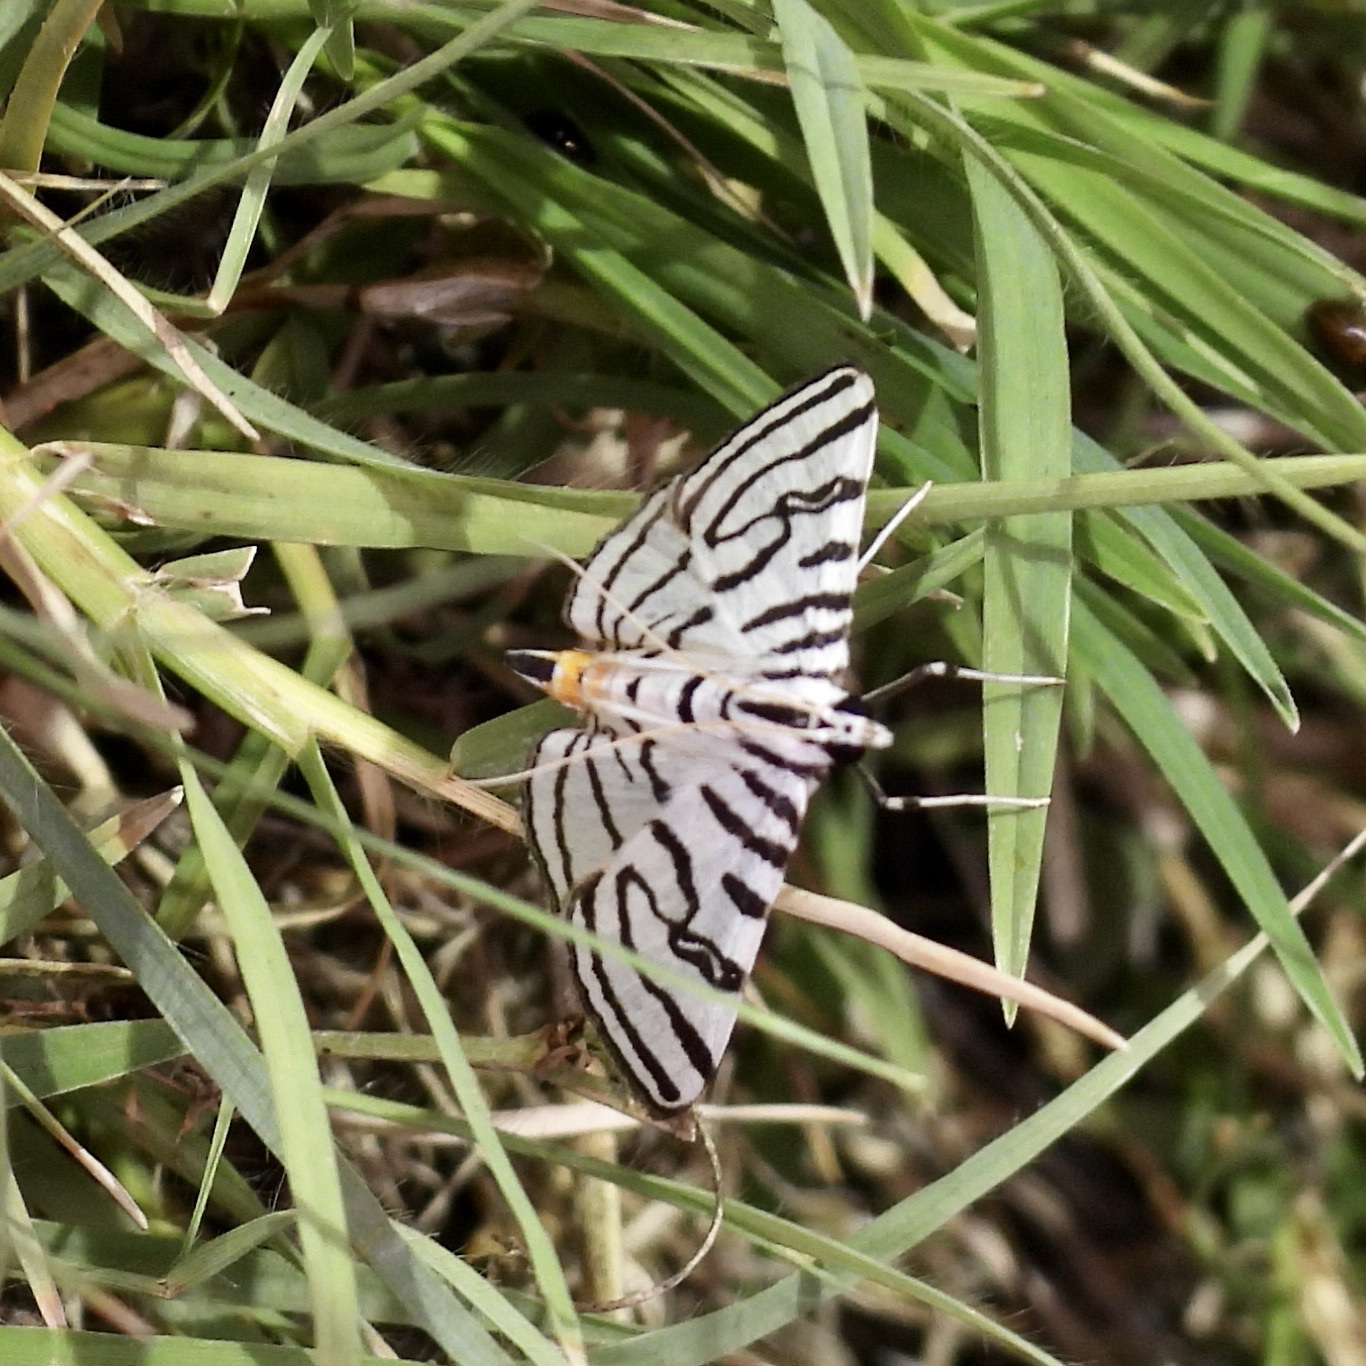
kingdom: Animalia
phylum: Arthropoda
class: Insecta
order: Lepidoptera
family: Crambidae
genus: Conchylodes
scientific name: Conchylodes ovulalis
